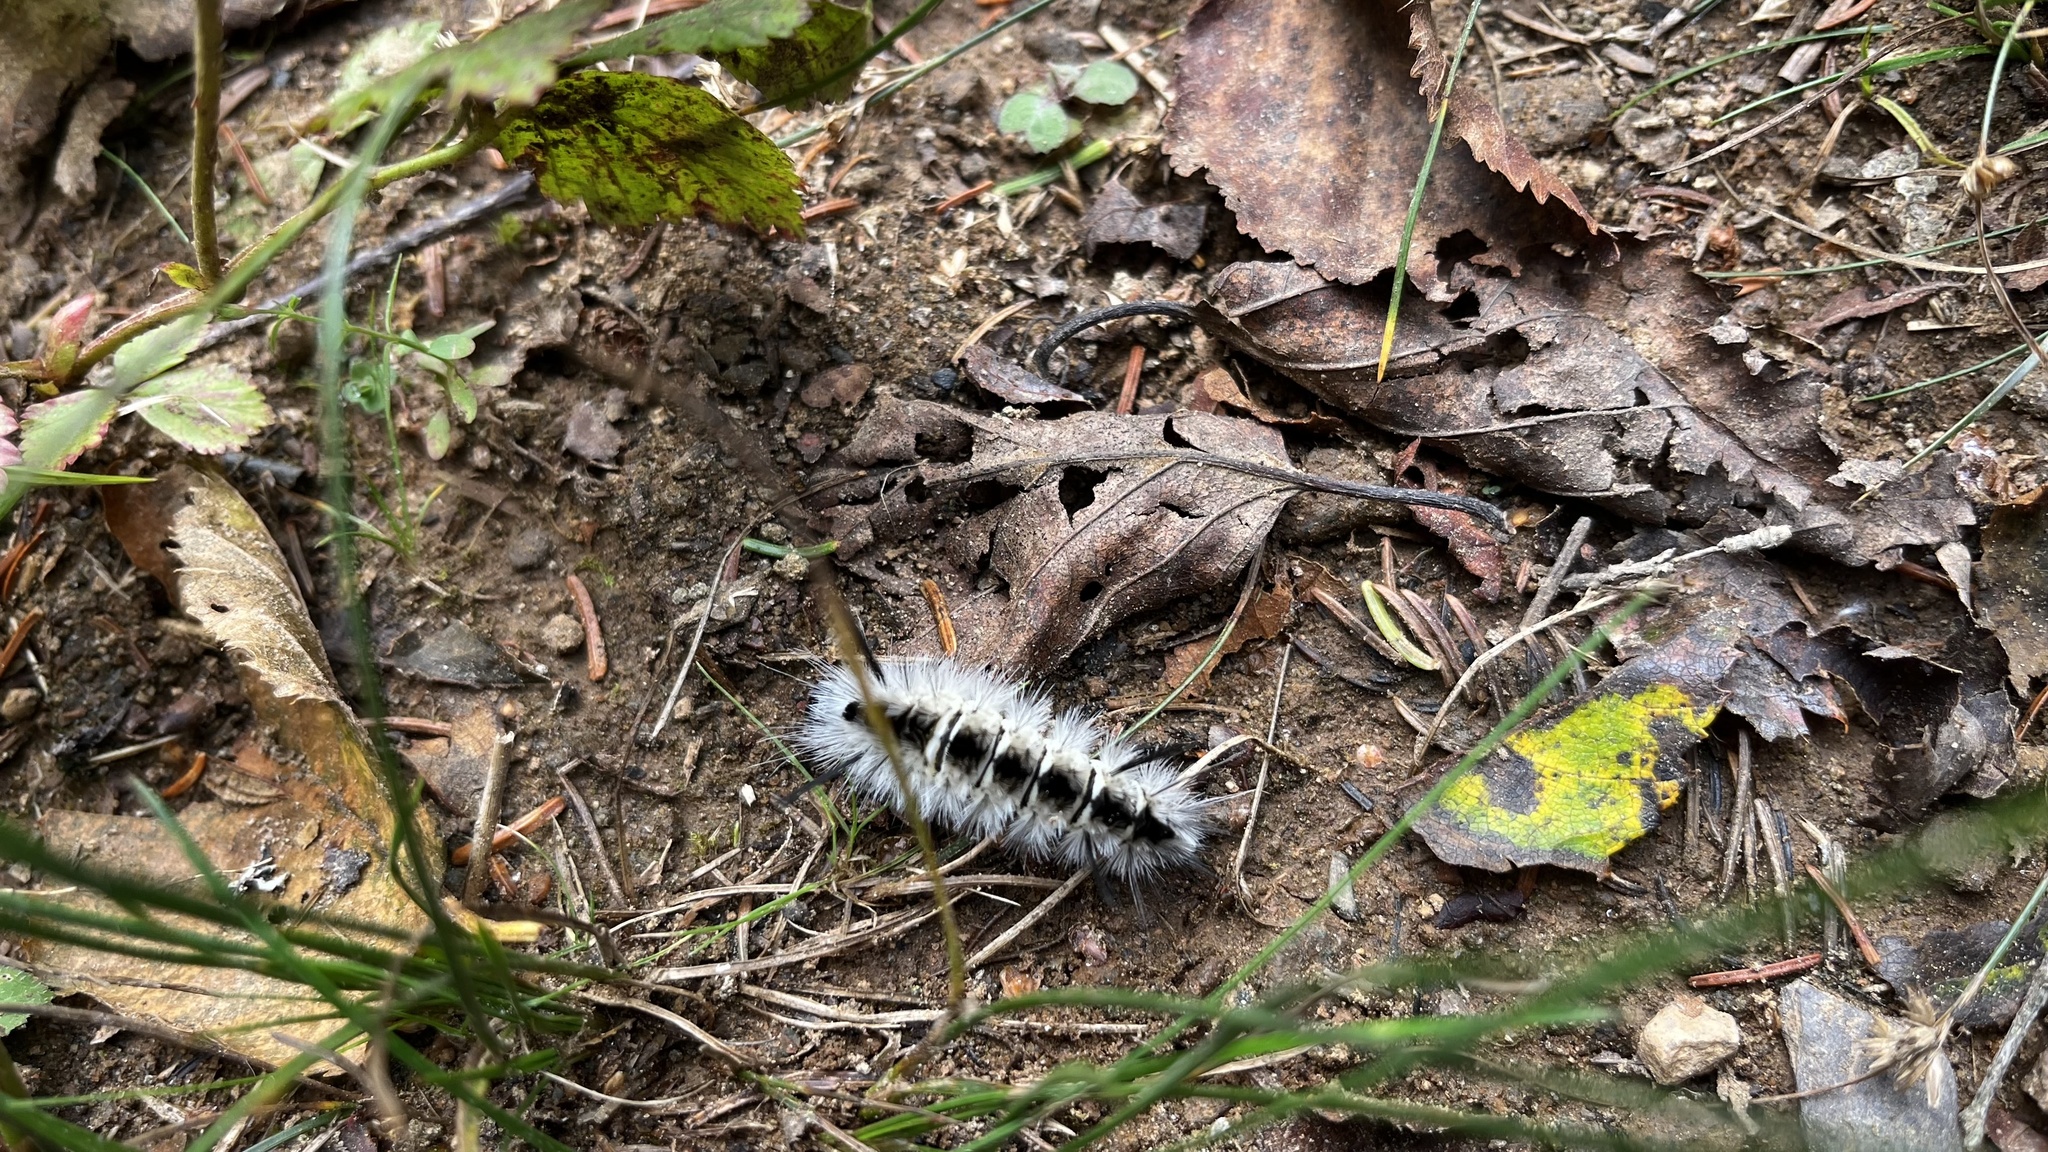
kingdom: Animalia
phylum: Arthropoda
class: Insecta
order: Lepidoptera
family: Erebidae
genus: Lophocampa
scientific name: Lophocampa caryae
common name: Hickory tussock moth
